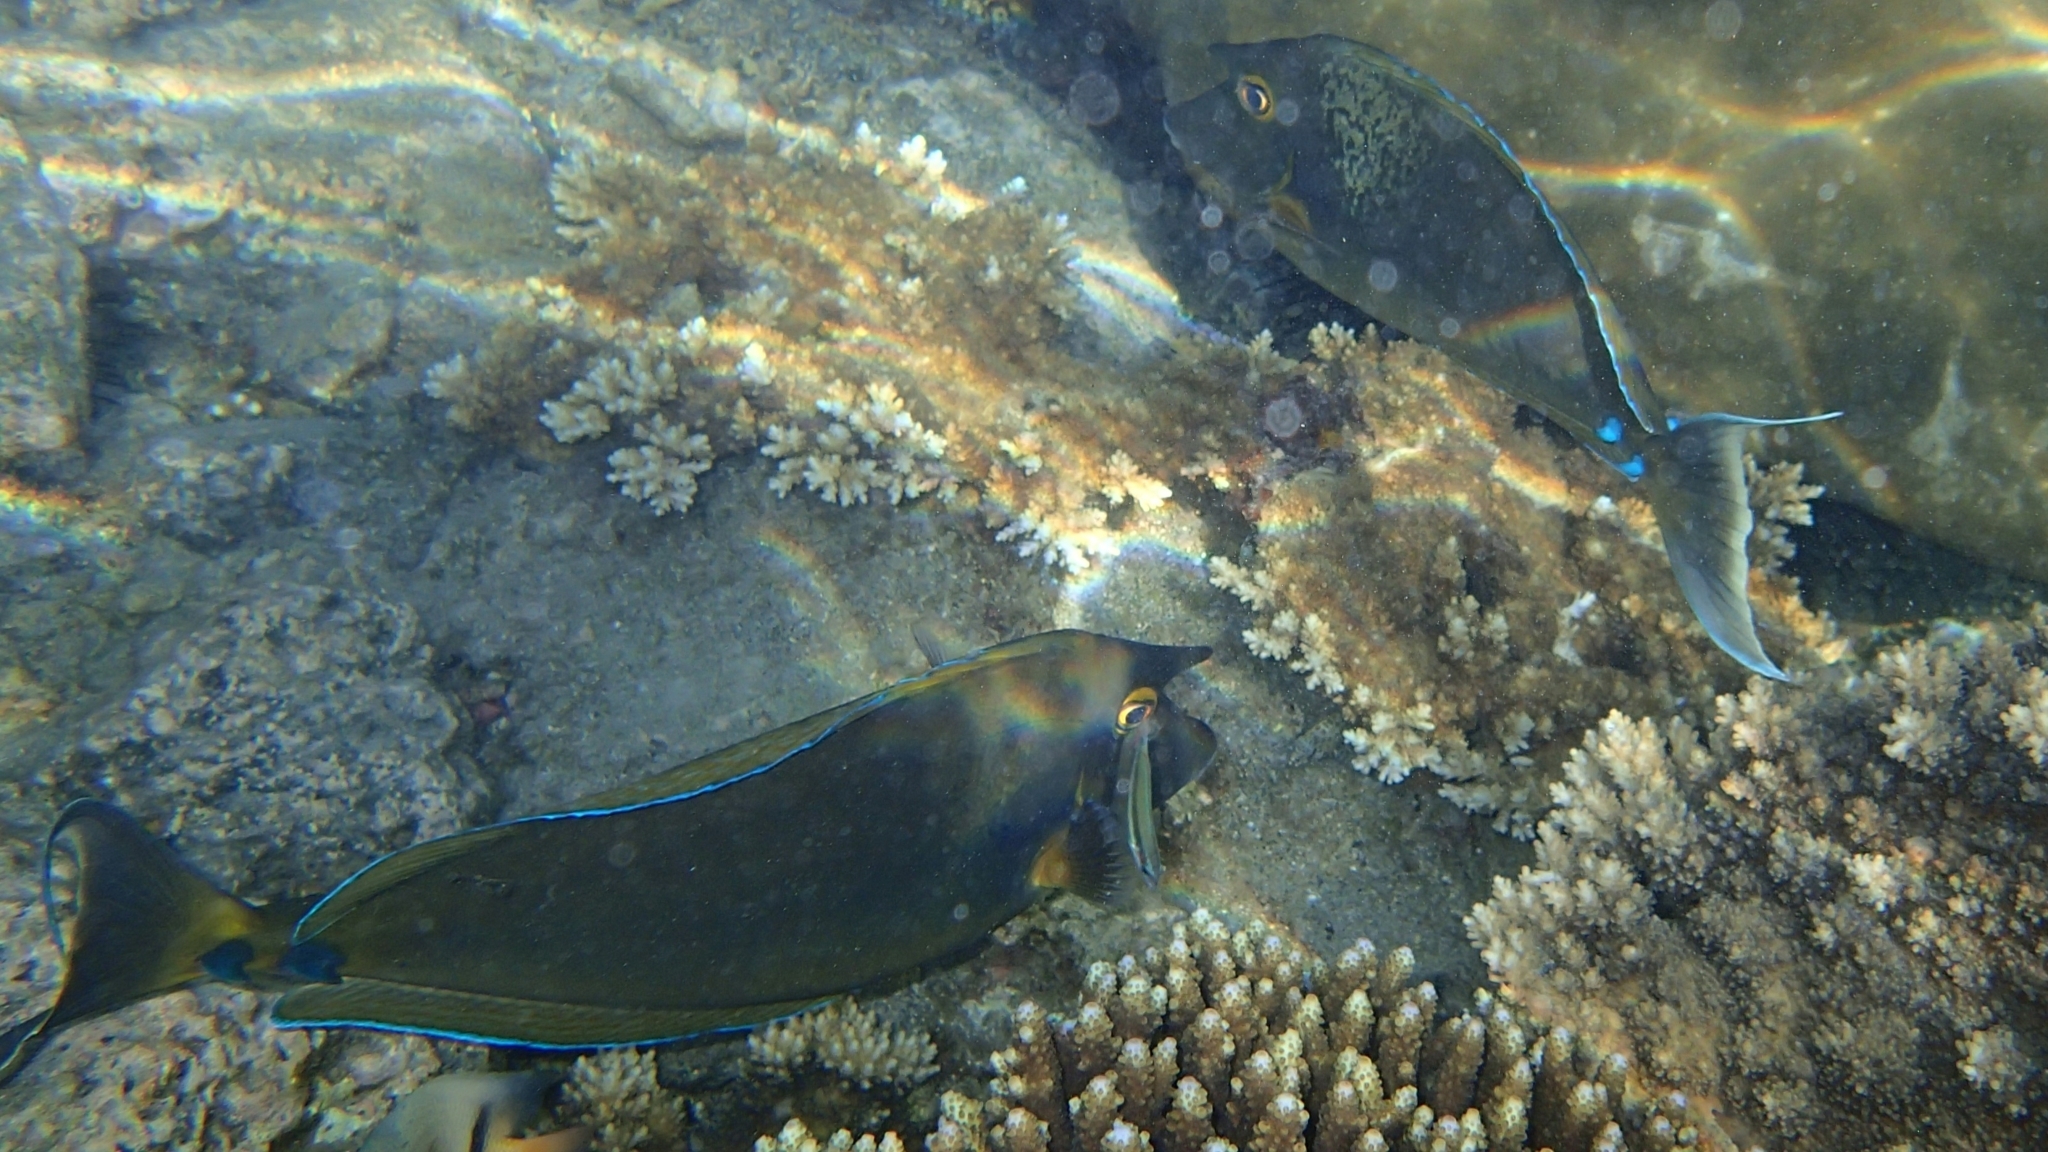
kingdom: Animalia
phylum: Chordata
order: Perciformes
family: Acanthuridae
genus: Naso
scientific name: Naso unicornis
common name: Bluespine unicornfish
